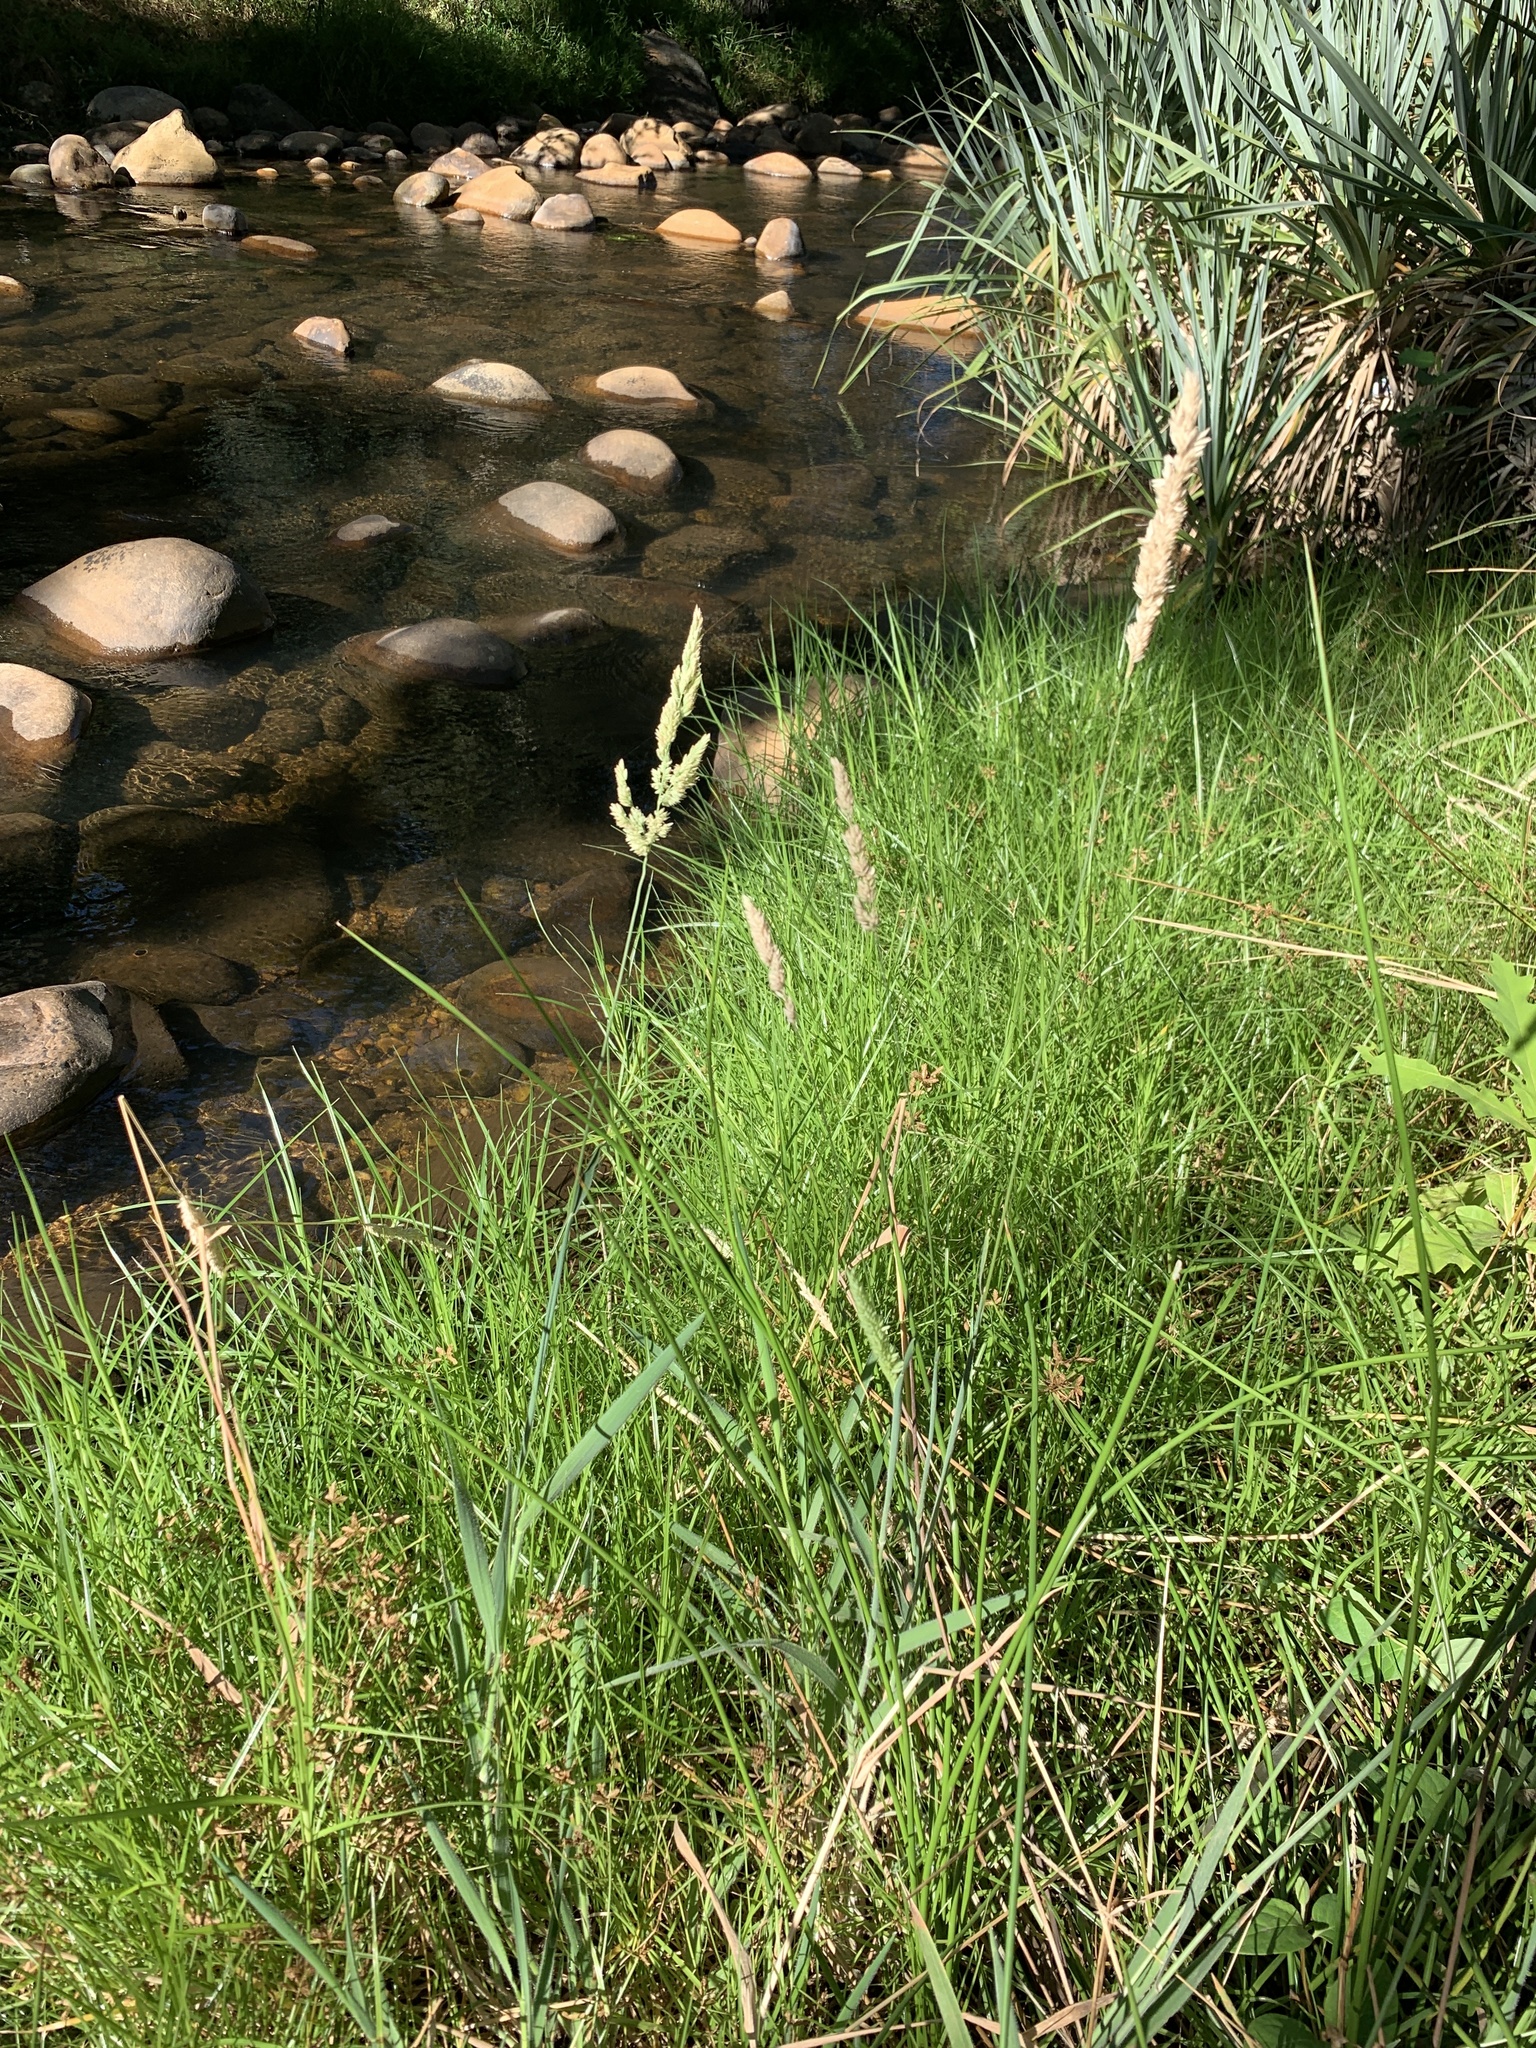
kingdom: Plantae
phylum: Tracheophyta
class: Liliopsida
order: Poales
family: Poaceae
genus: Holcus
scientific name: Holcus lanatus
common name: Yorkshire-fog
